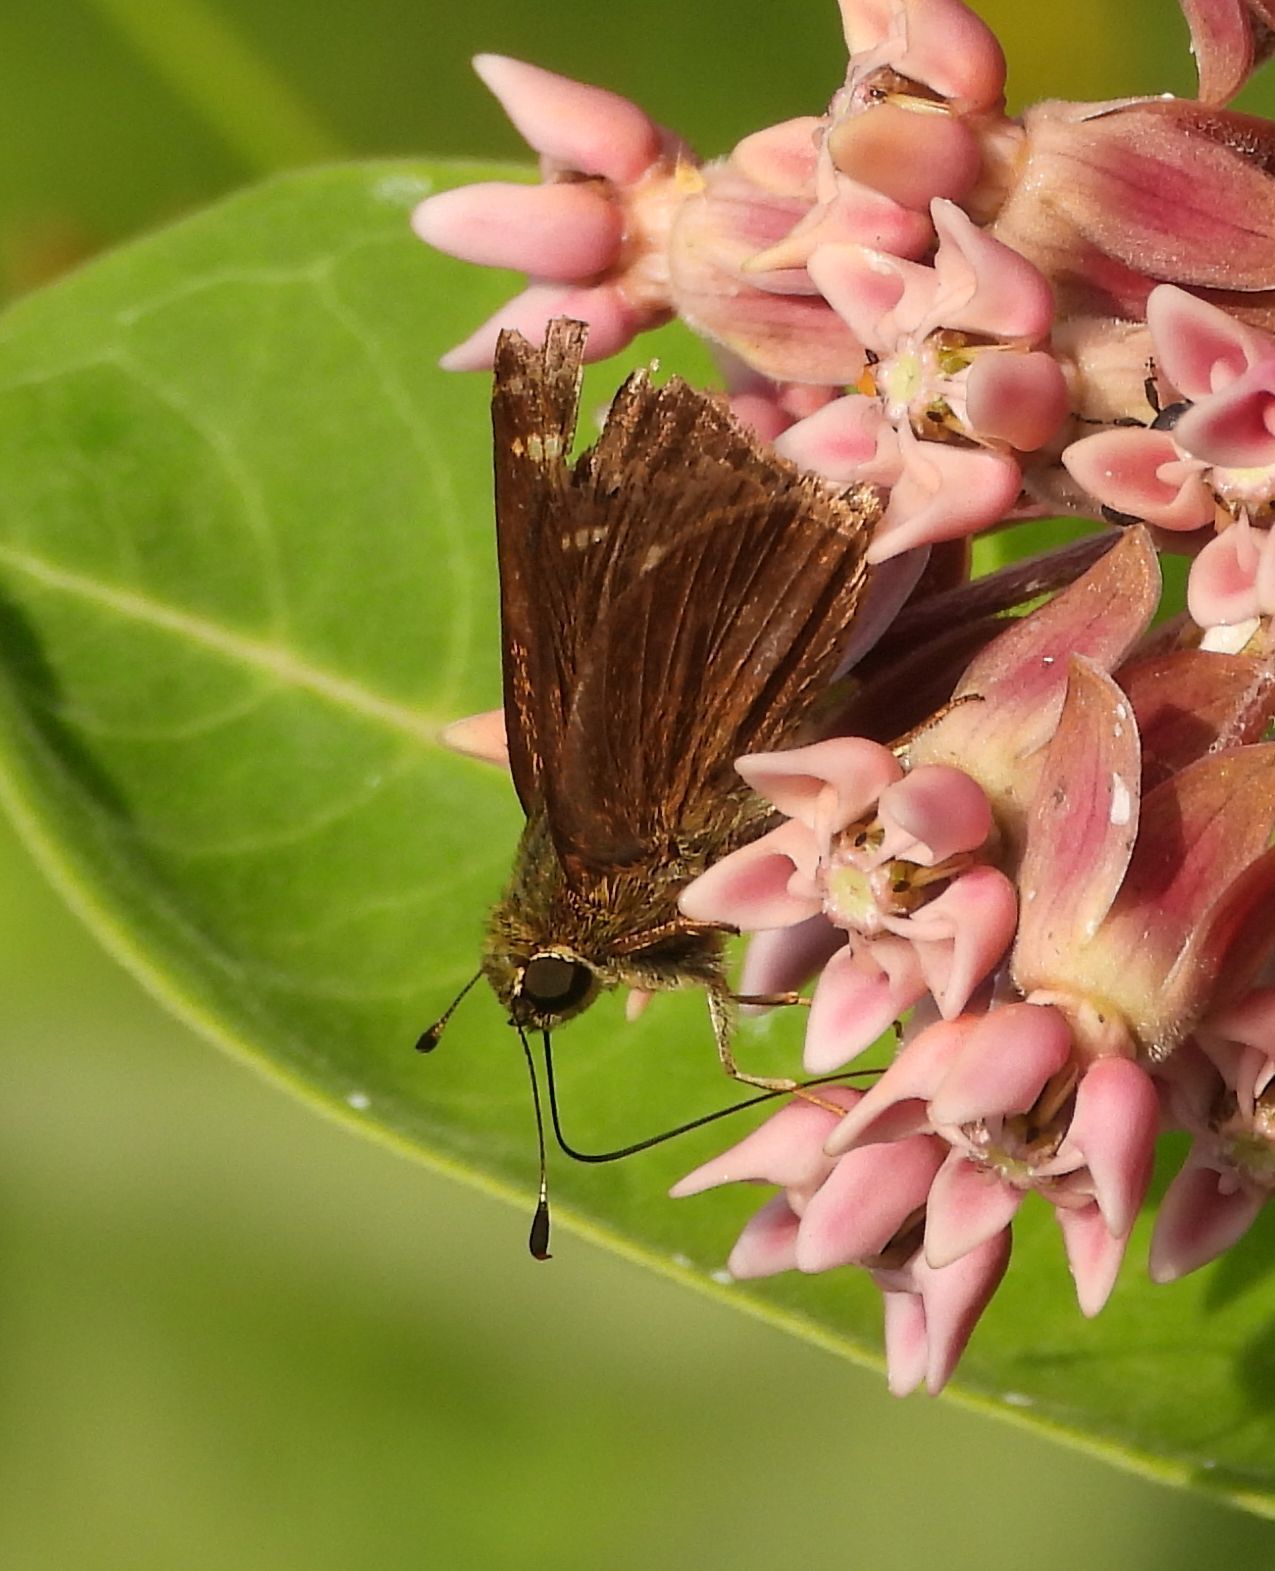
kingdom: Animalia
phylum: Arthropoda
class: Insecta
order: Lepidoptera
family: Hesperiidae
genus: Vernia
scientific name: Vernia verna
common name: Little glassywing
